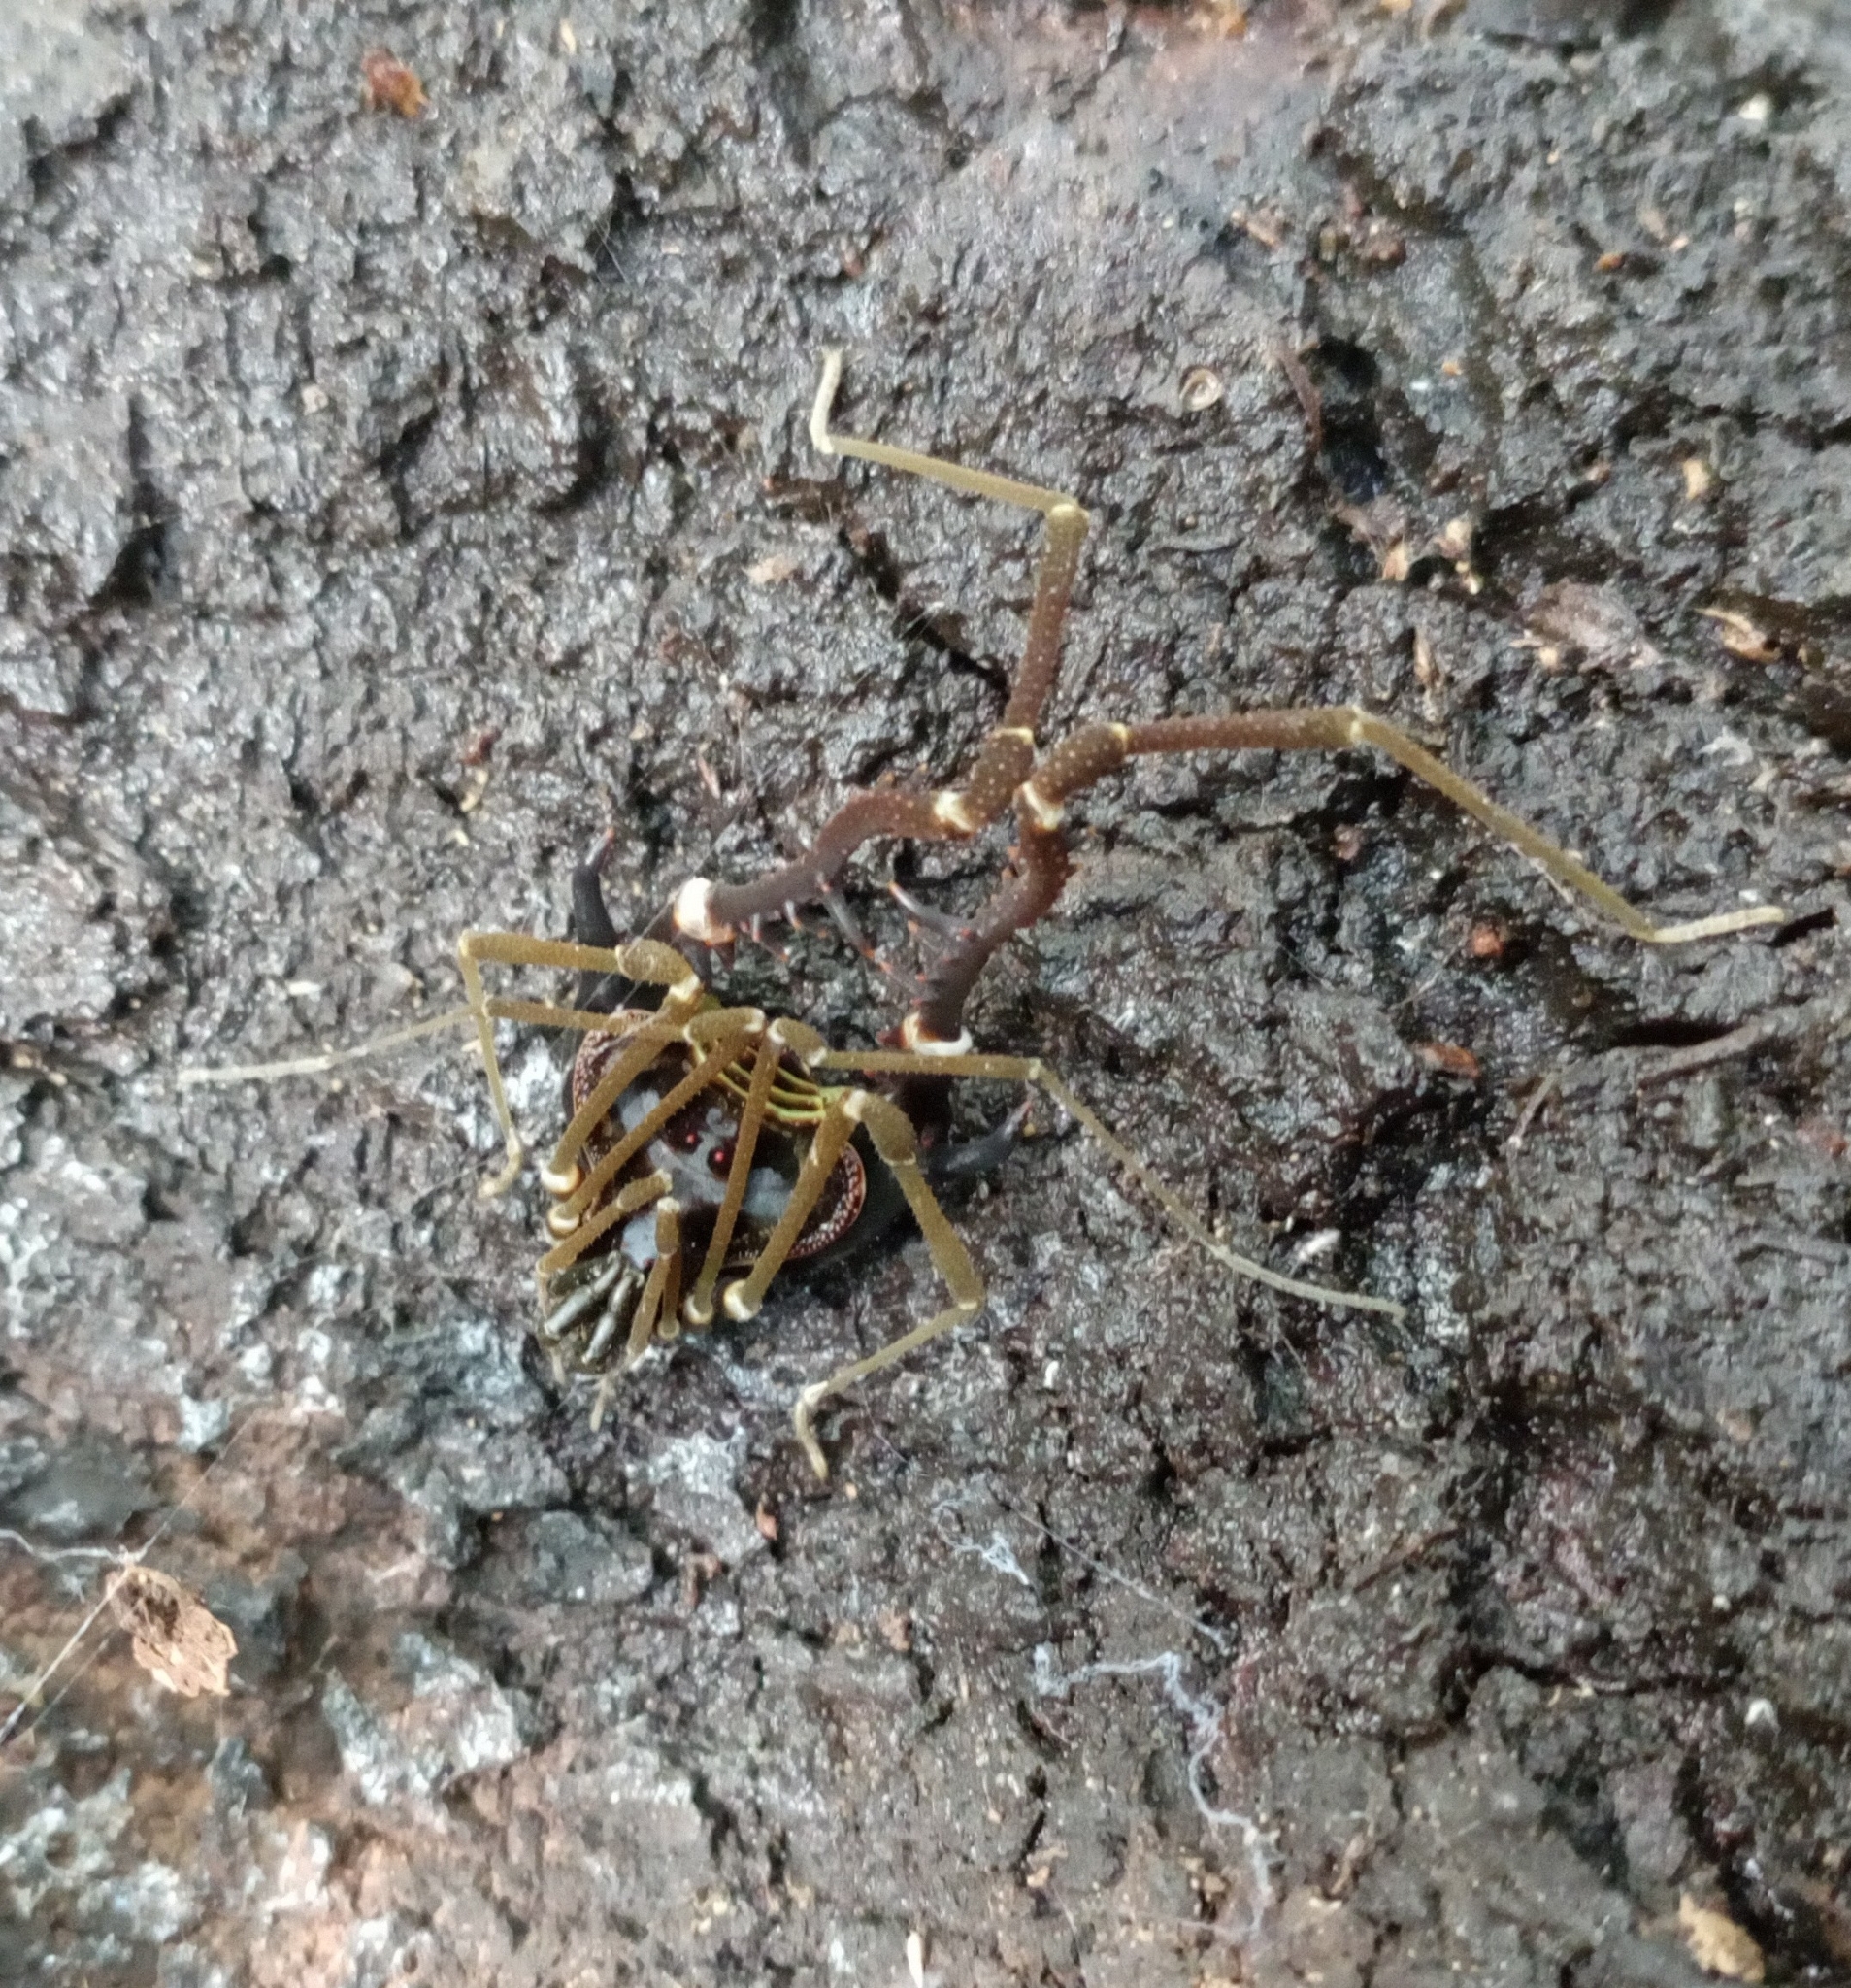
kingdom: Animalia
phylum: Arthropoda
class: Arachnida
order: Opiliones
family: Gonyleptidae
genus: Sadocus
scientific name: Sadocus asperatus
